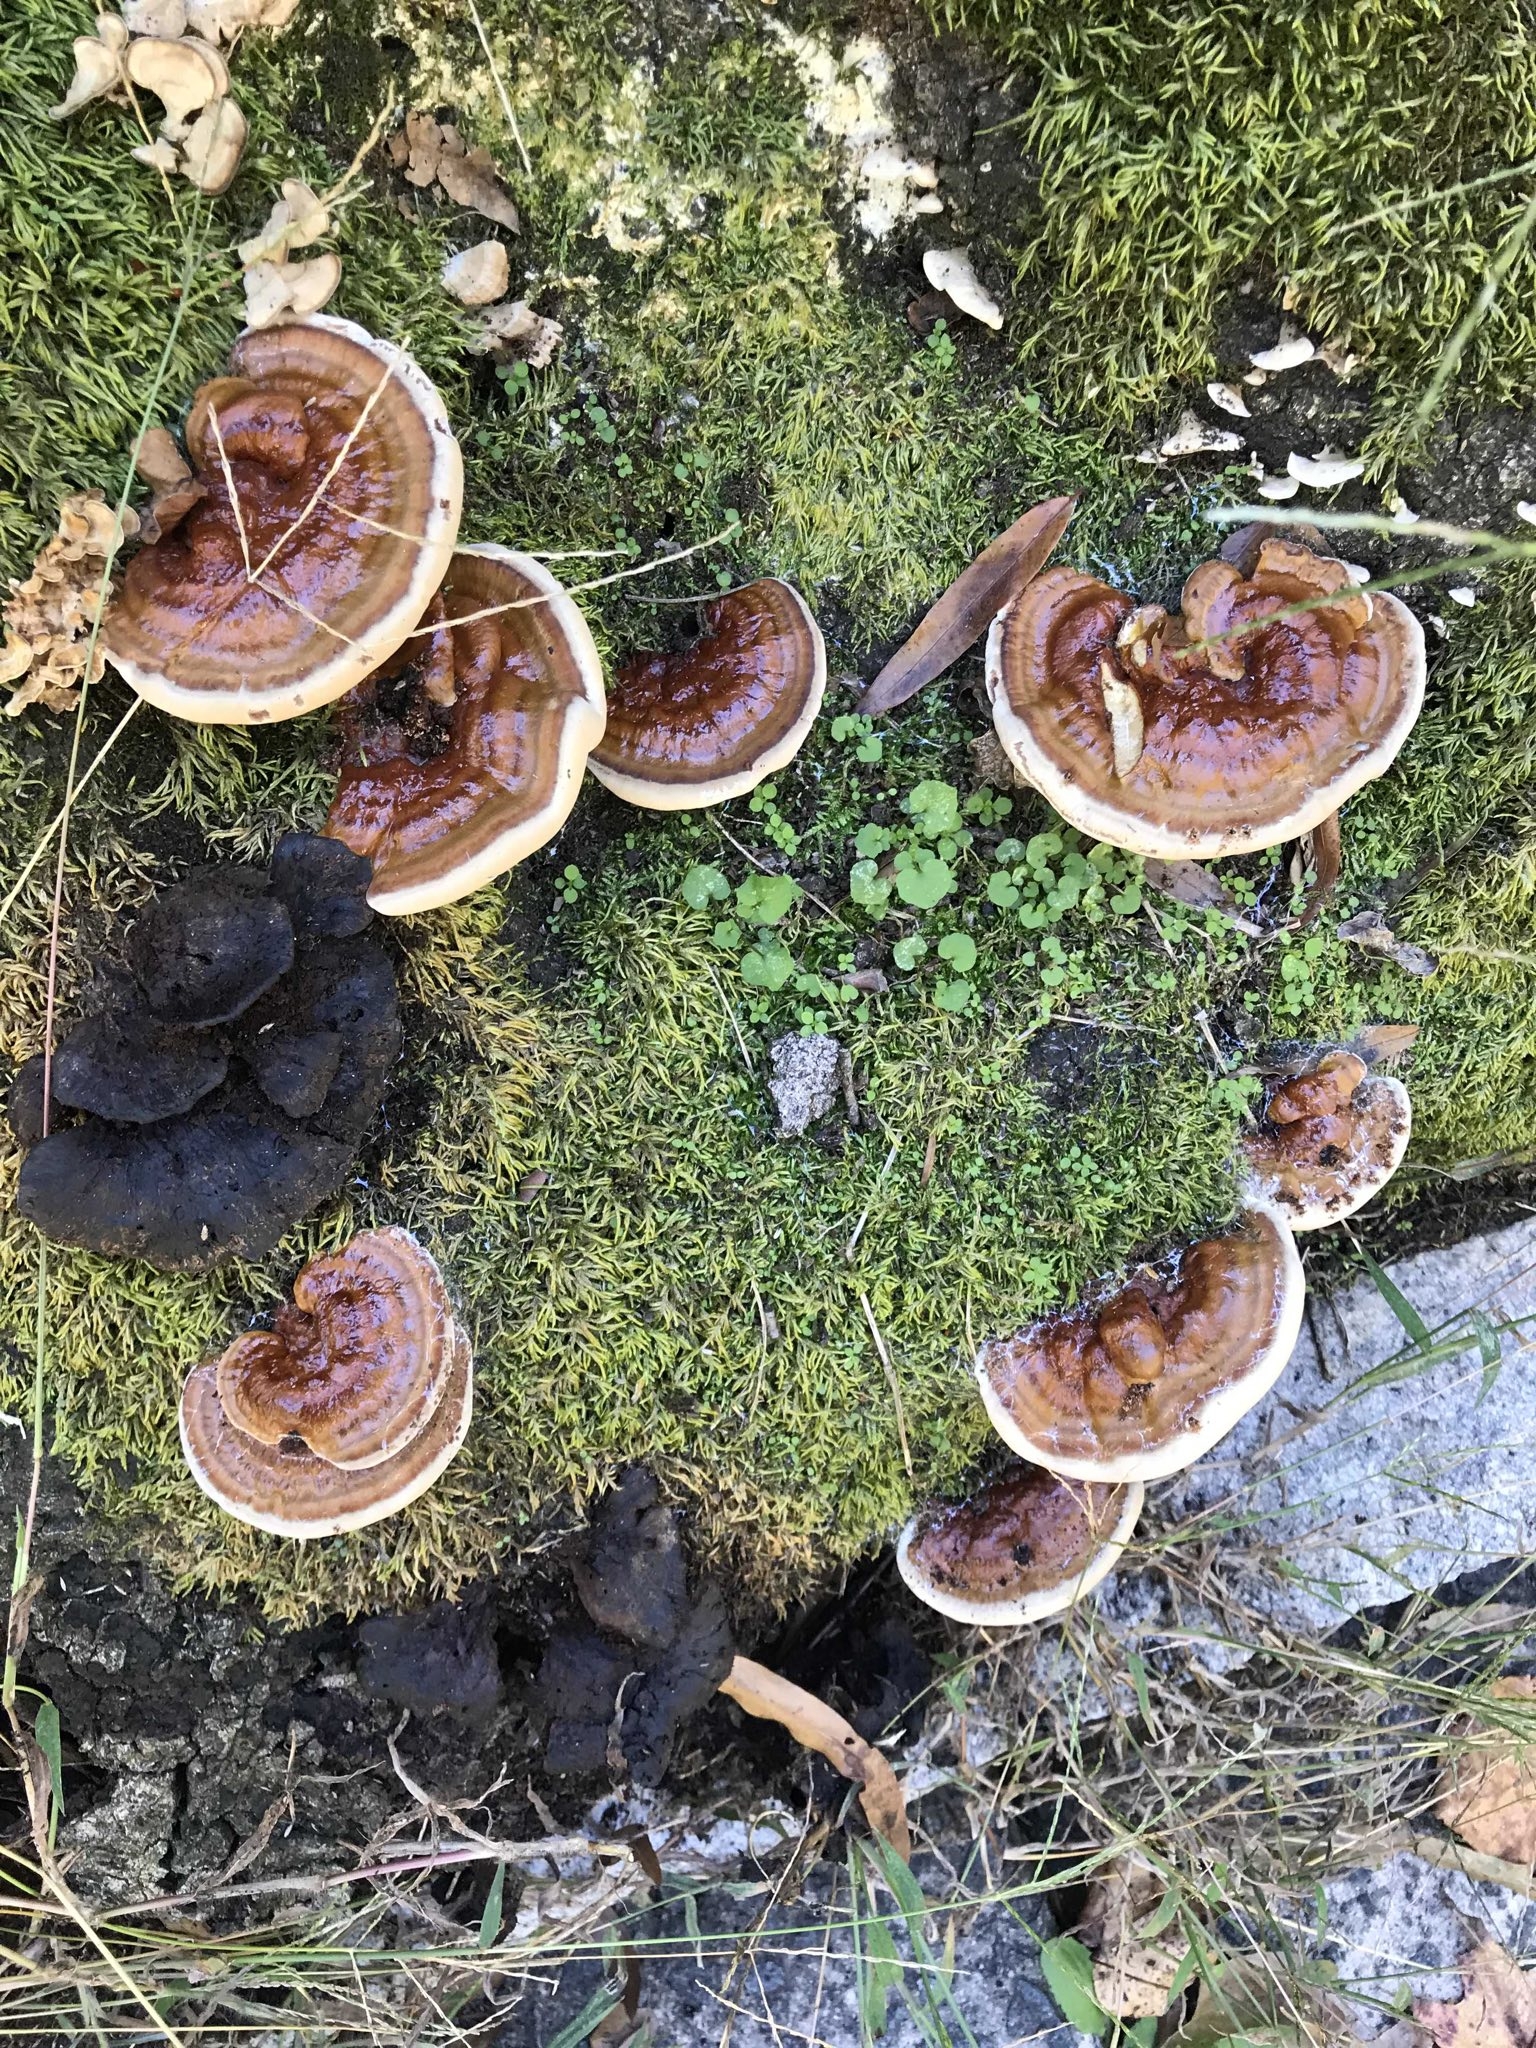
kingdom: Fungi
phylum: Basidiomycota
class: Agaricomycetes
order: Polyporales
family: Polyporaceae
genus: Ganoderma
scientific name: Ganoderma lobatum
